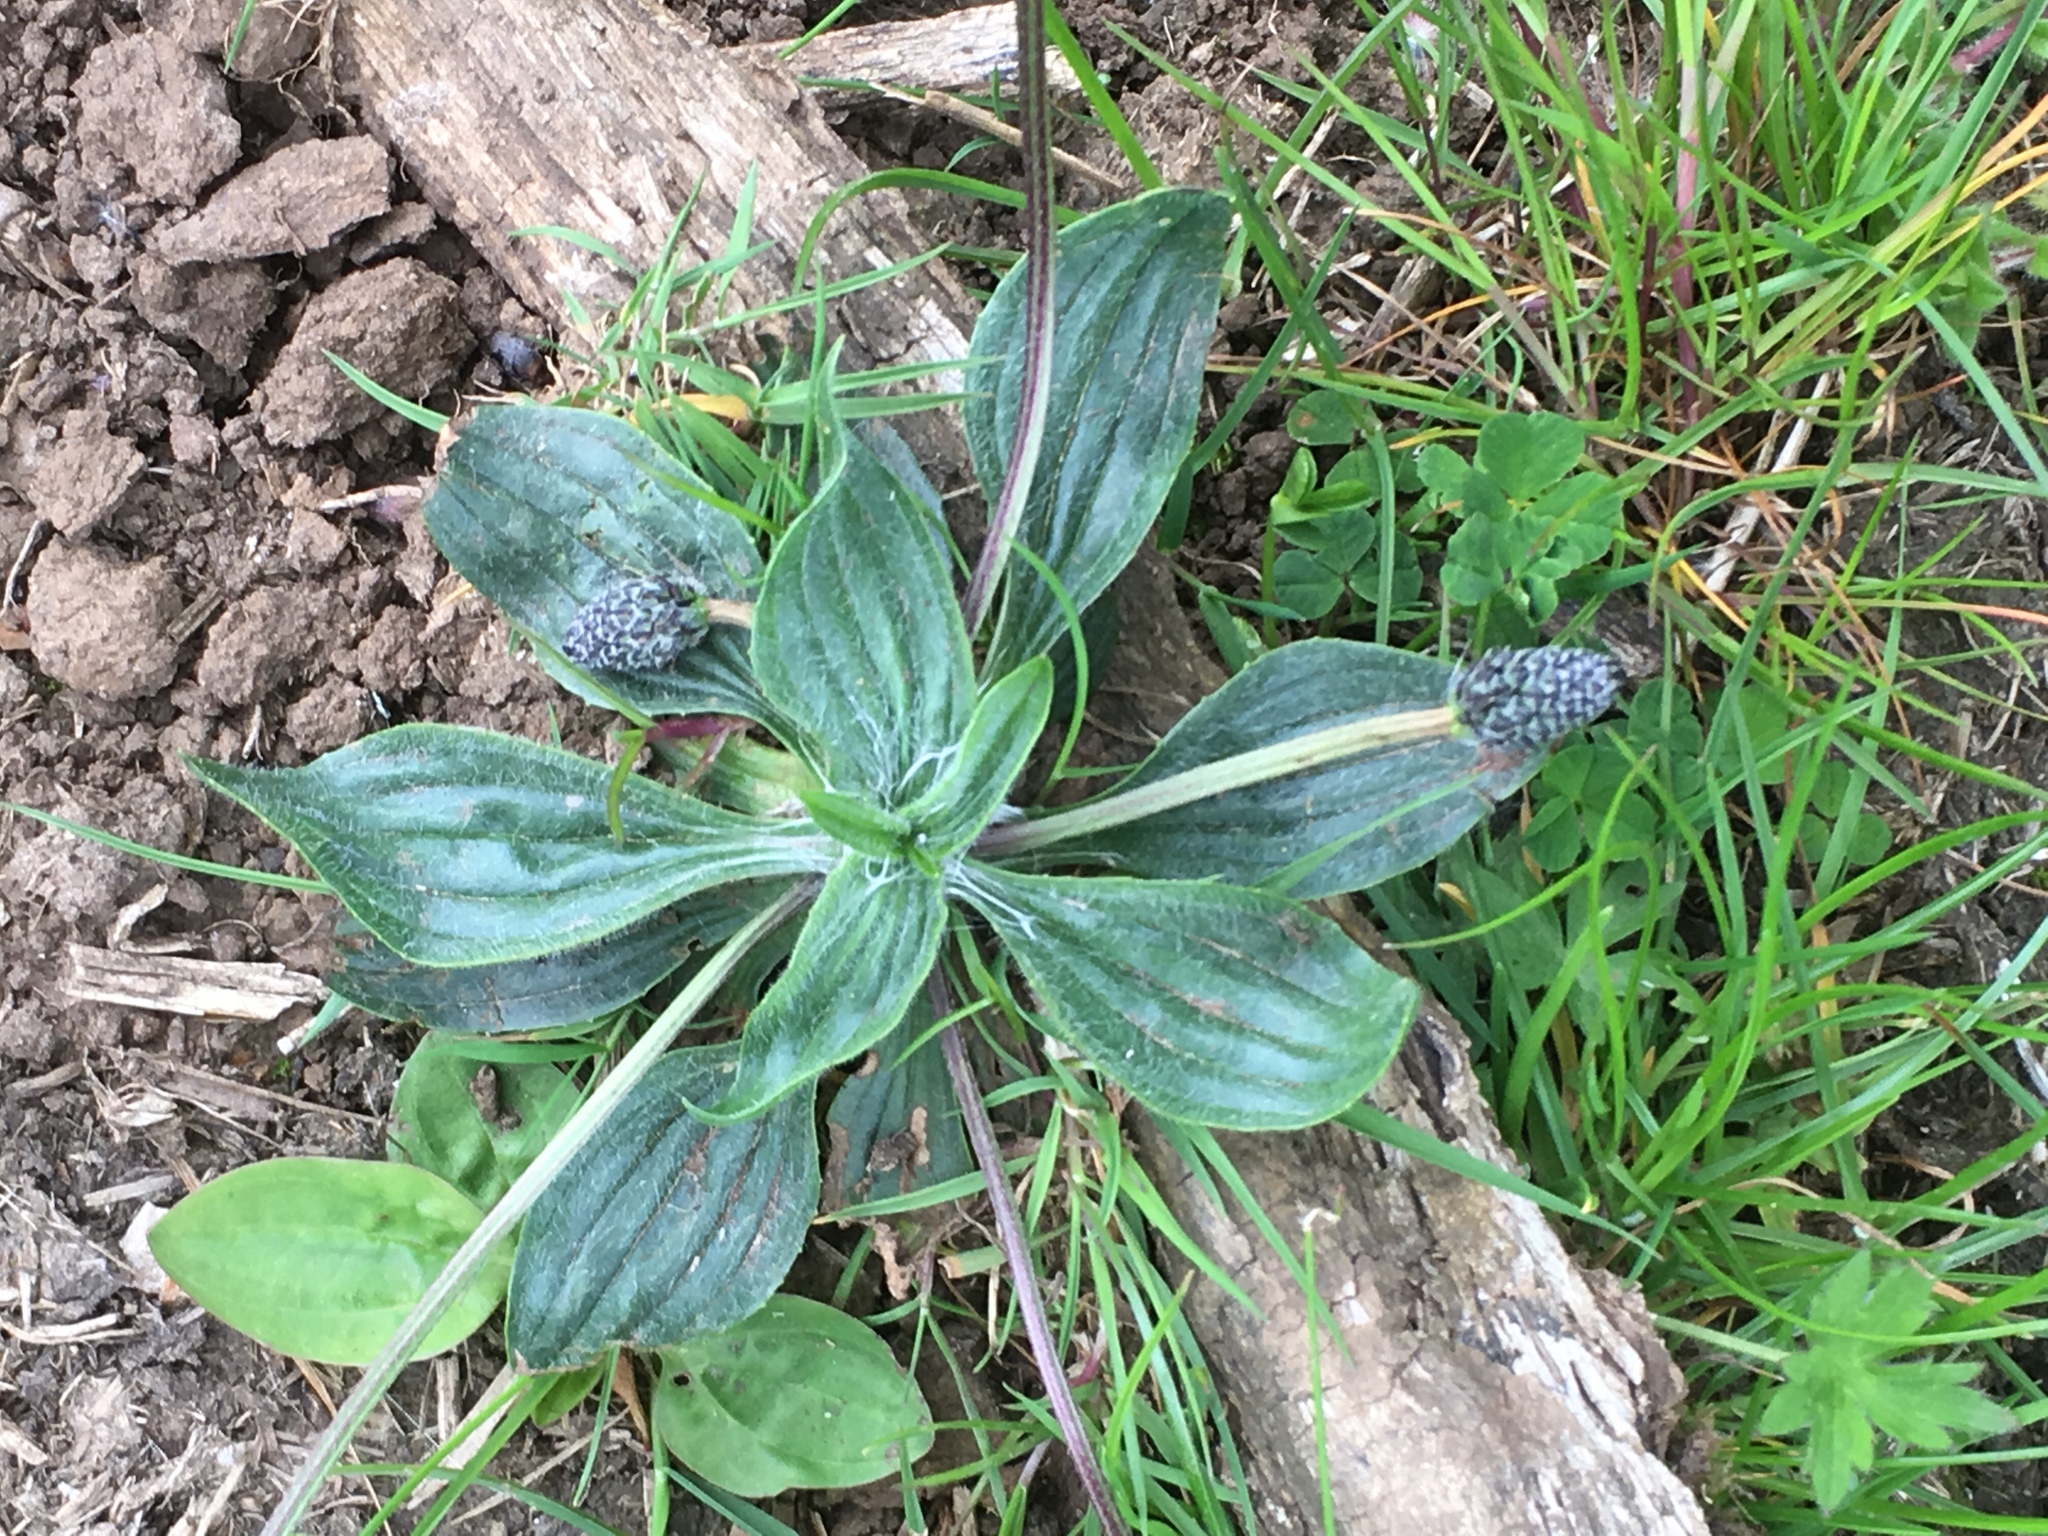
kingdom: Plantae
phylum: Tracheophyta
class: Magnoliopsida
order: Lamiales
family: Plantaginaceae
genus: Plantago
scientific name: Plantago lanceolata
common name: Ribwort plantain
